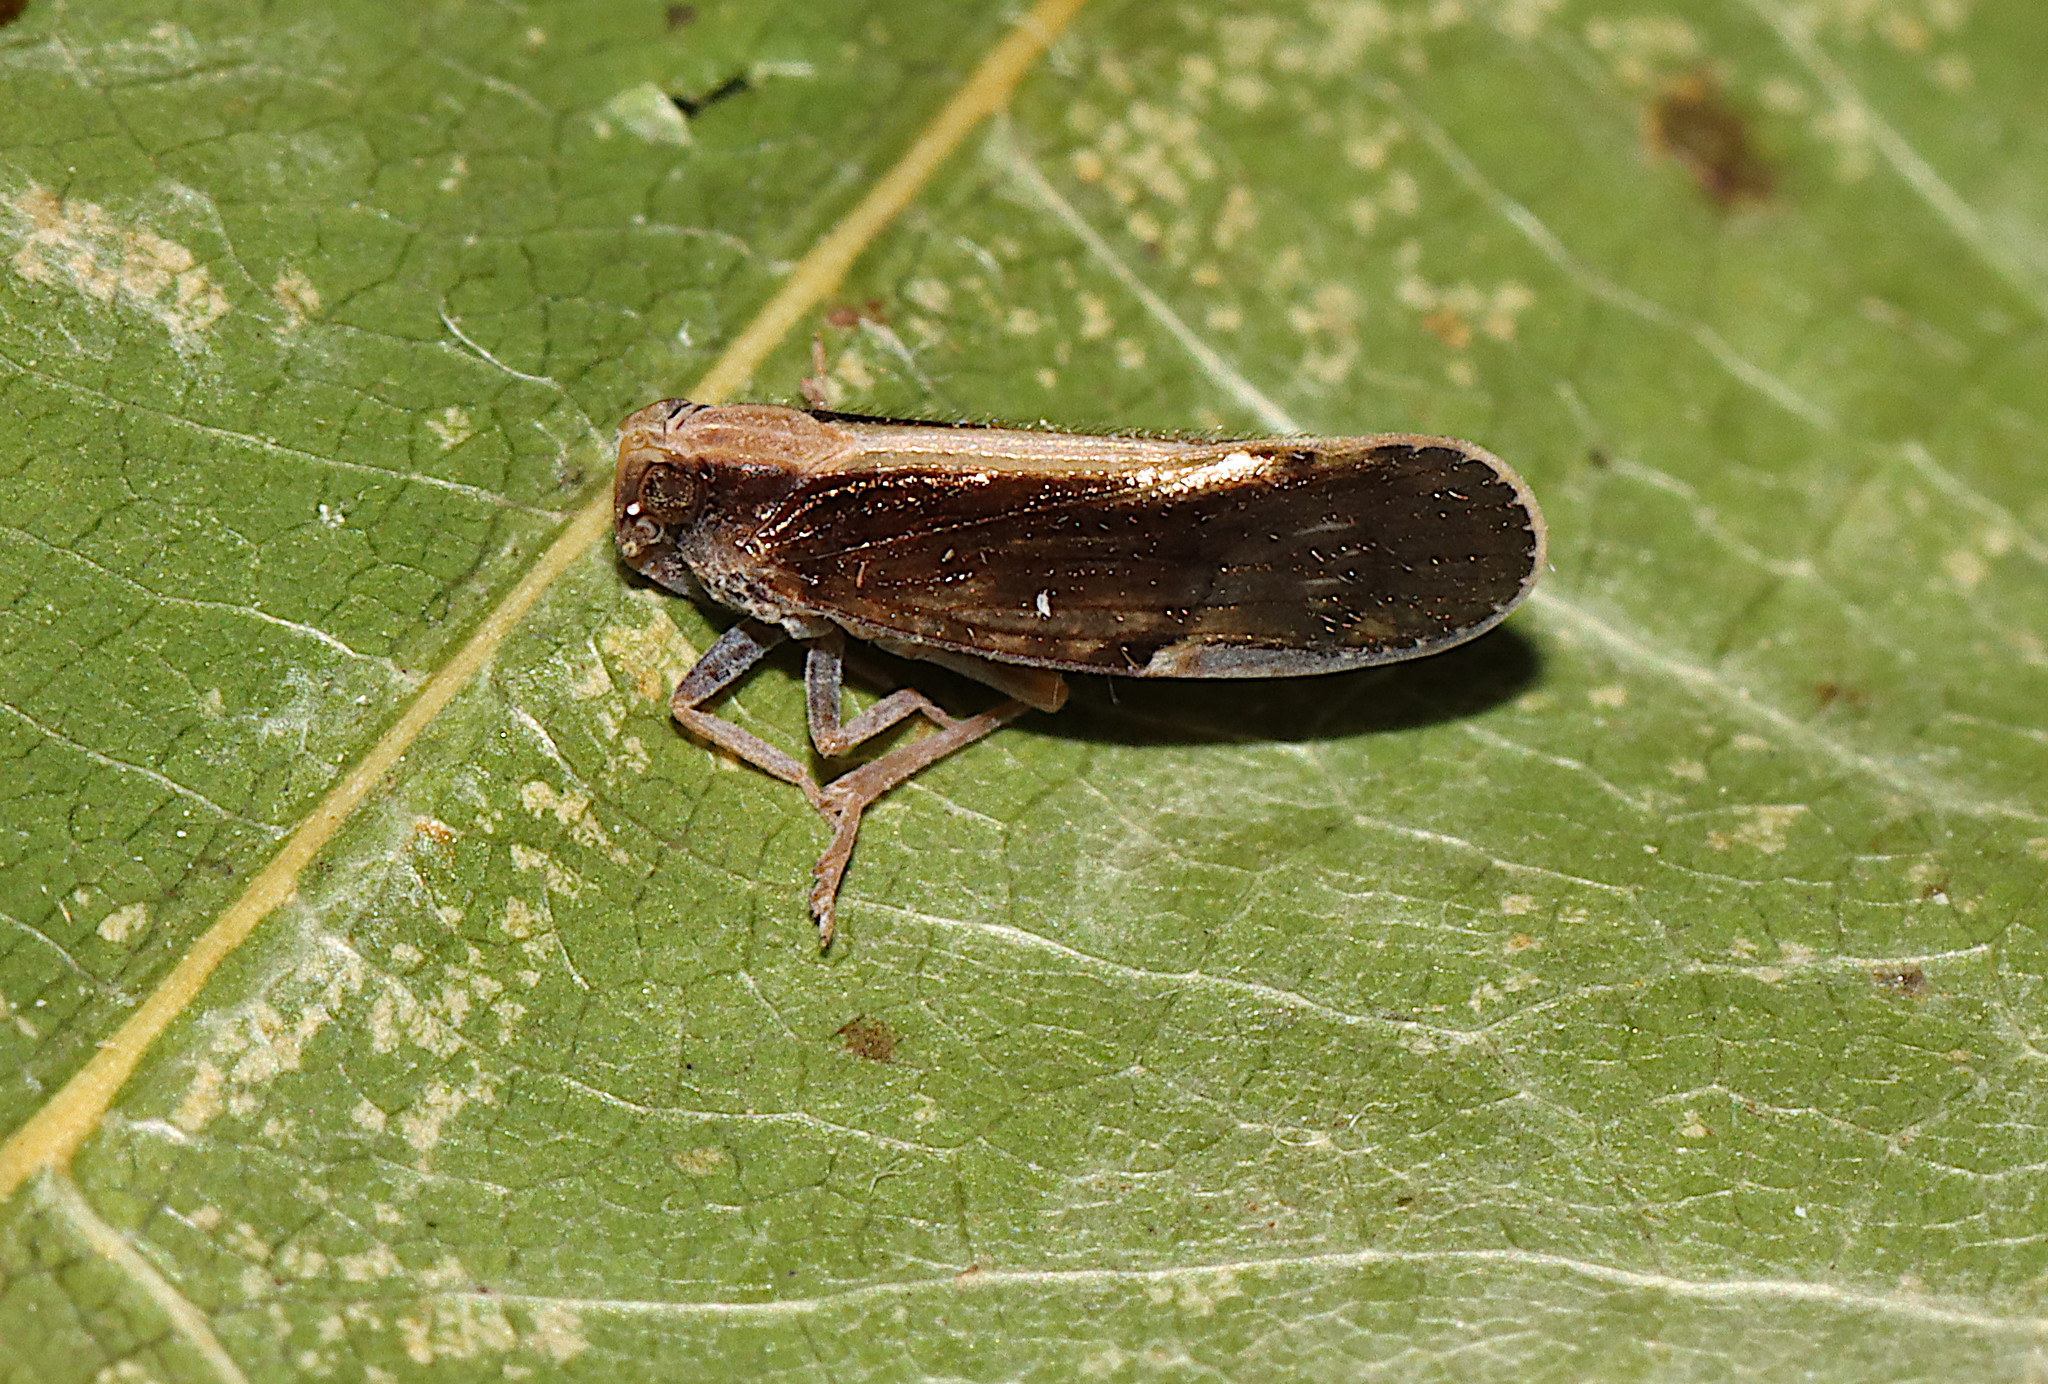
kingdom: Animalia
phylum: Arthropoda
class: Insecta
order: Hemiptera
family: Cixiidae
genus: Pintalia
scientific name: Pintalia delicata
